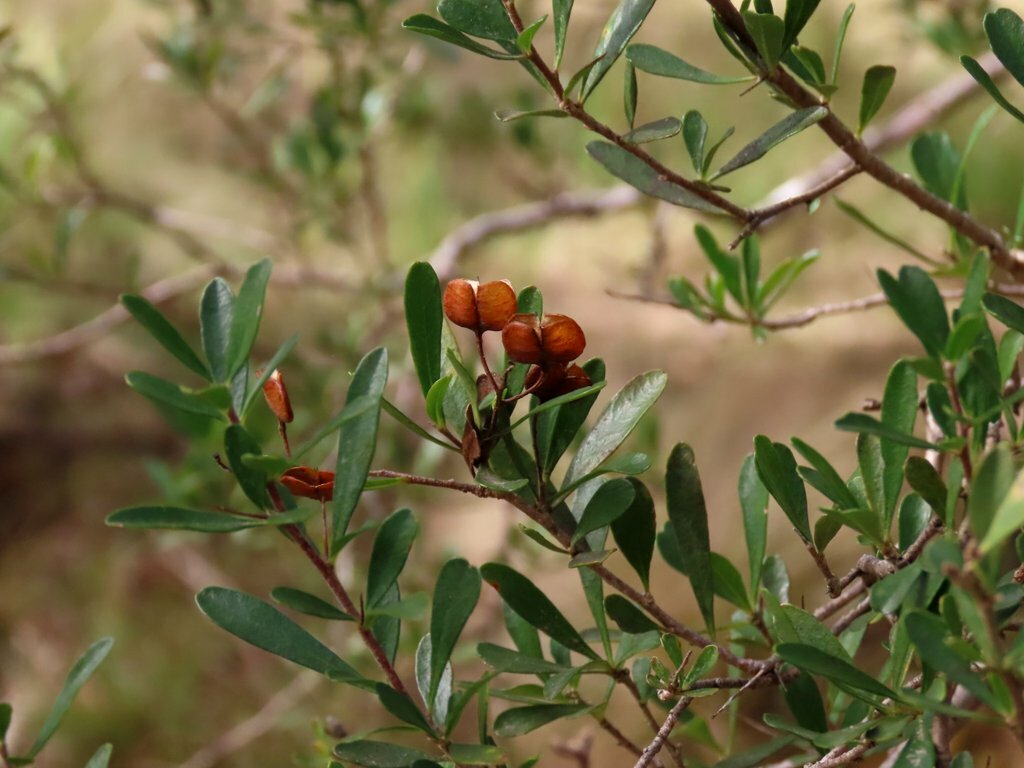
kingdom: Plantae
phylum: Tracheophyta
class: Magnoliopsida
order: Apiales
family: Pittosporaceae
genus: Bursaria
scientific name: Bursaria spinosa
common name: Australian blackthorn
